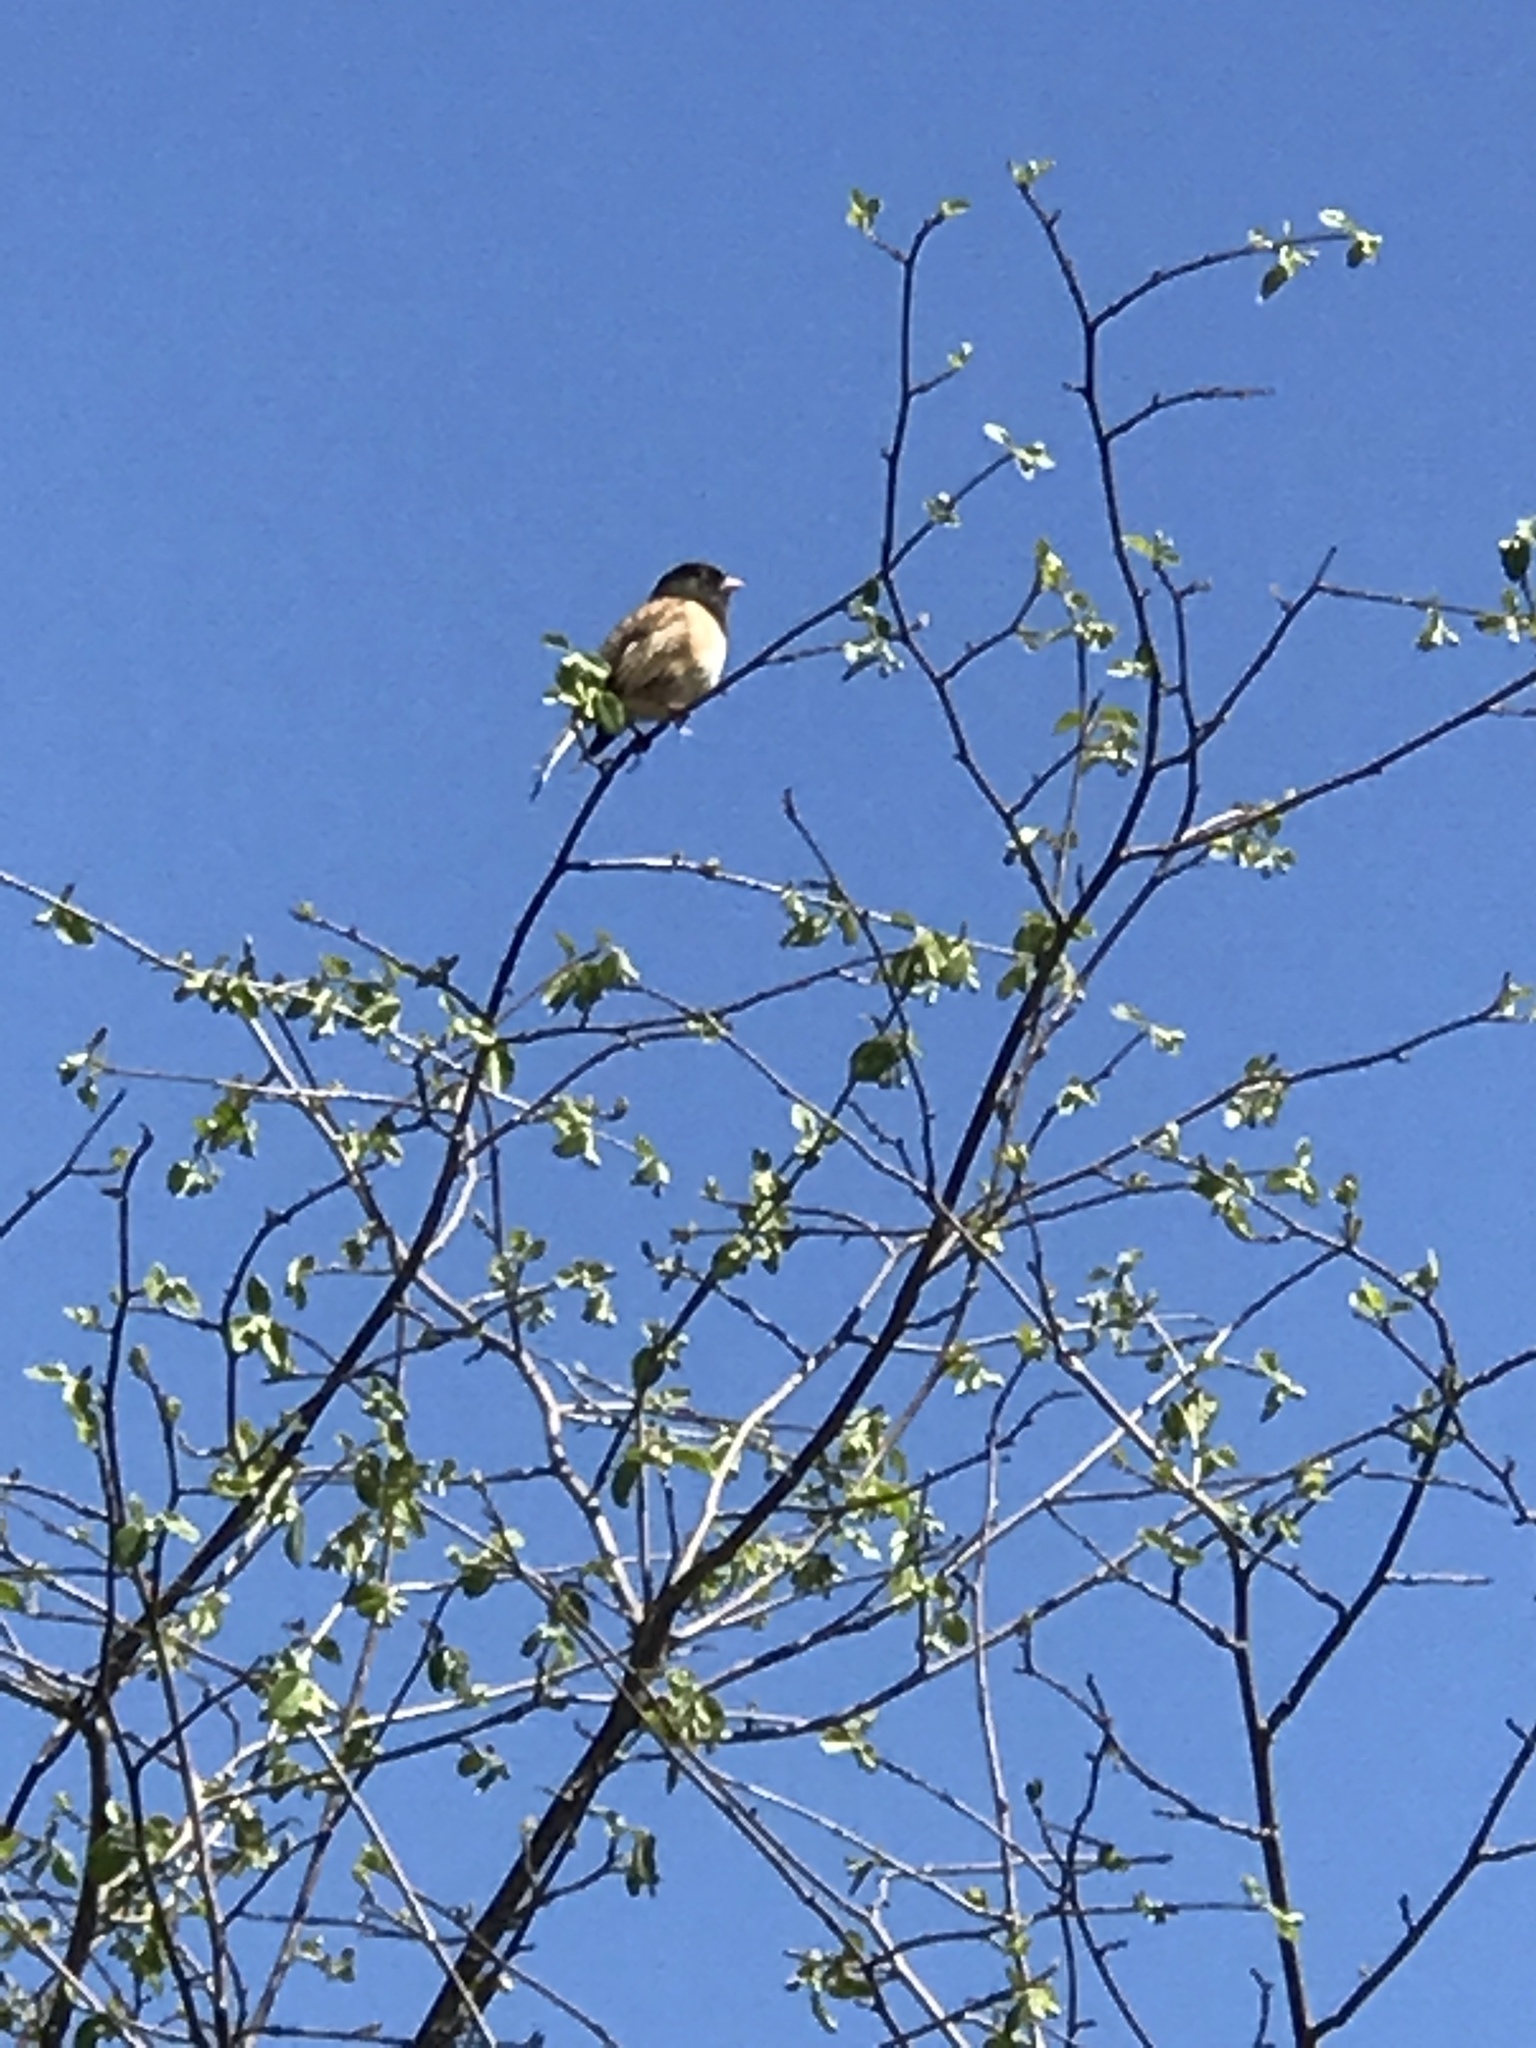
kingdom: Animalia
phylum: Chordata
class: Aves
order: Passeriformes
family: Passerellidae
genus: Junco
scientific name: Junco hyemalis
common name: Dark-eyed junco
